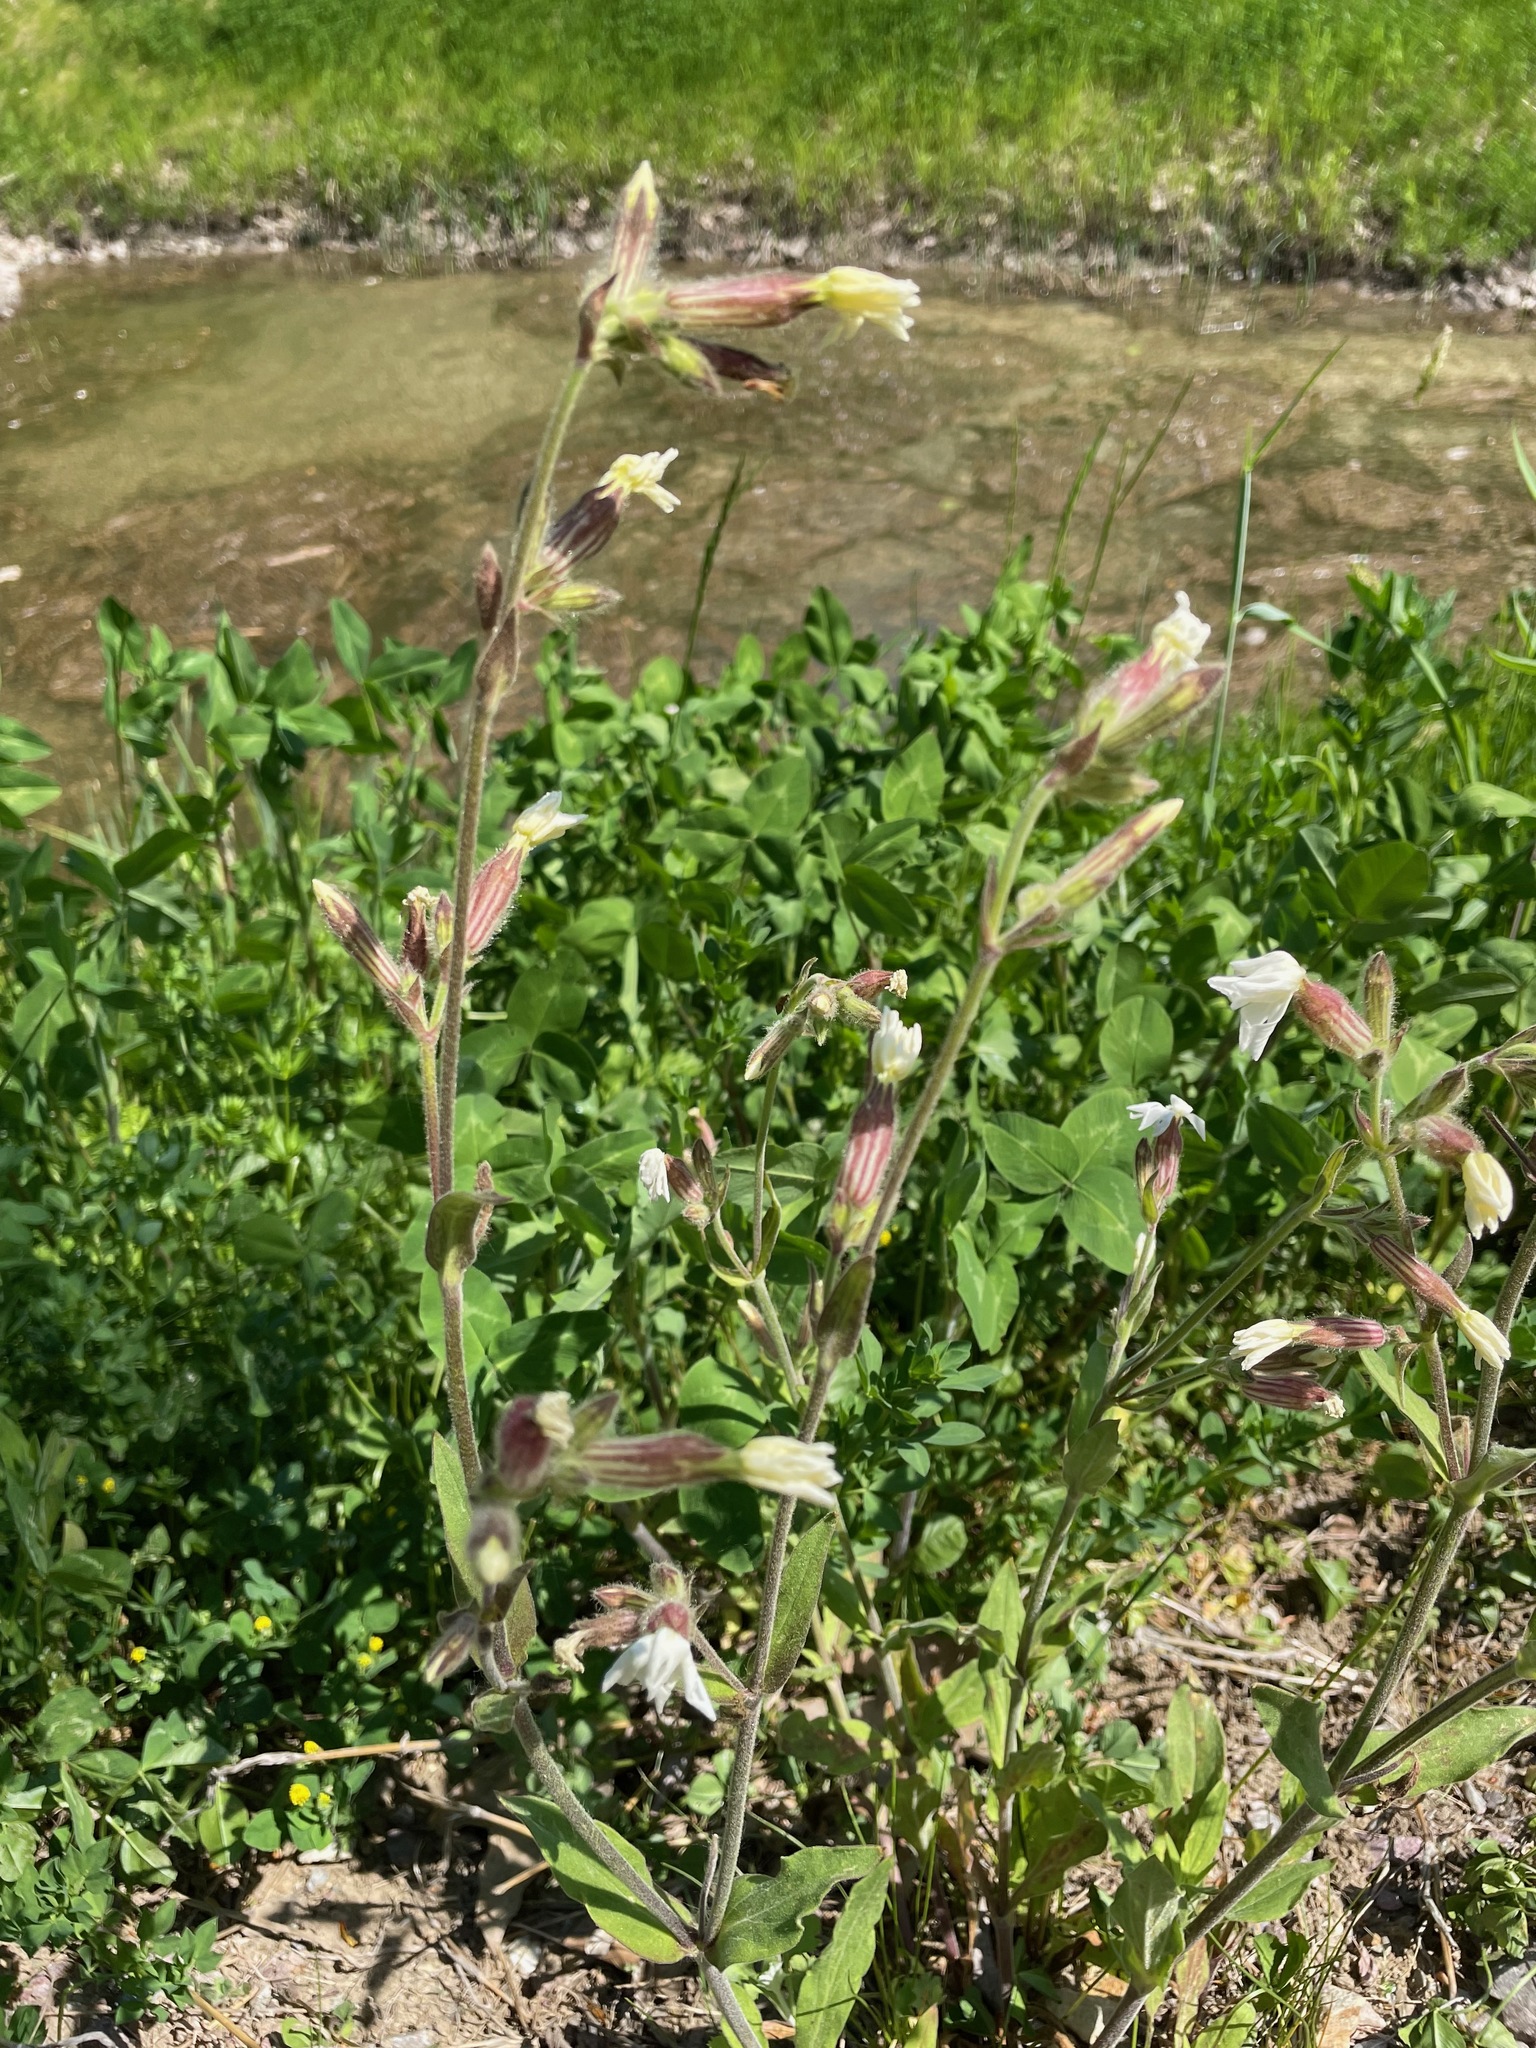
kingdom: Plantae
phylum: Tracheophyta
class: Magnoliopsida
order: Caryophyllales
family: Caryophyllaceae
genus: Silene
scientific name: Silene latifolia
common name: White campion
